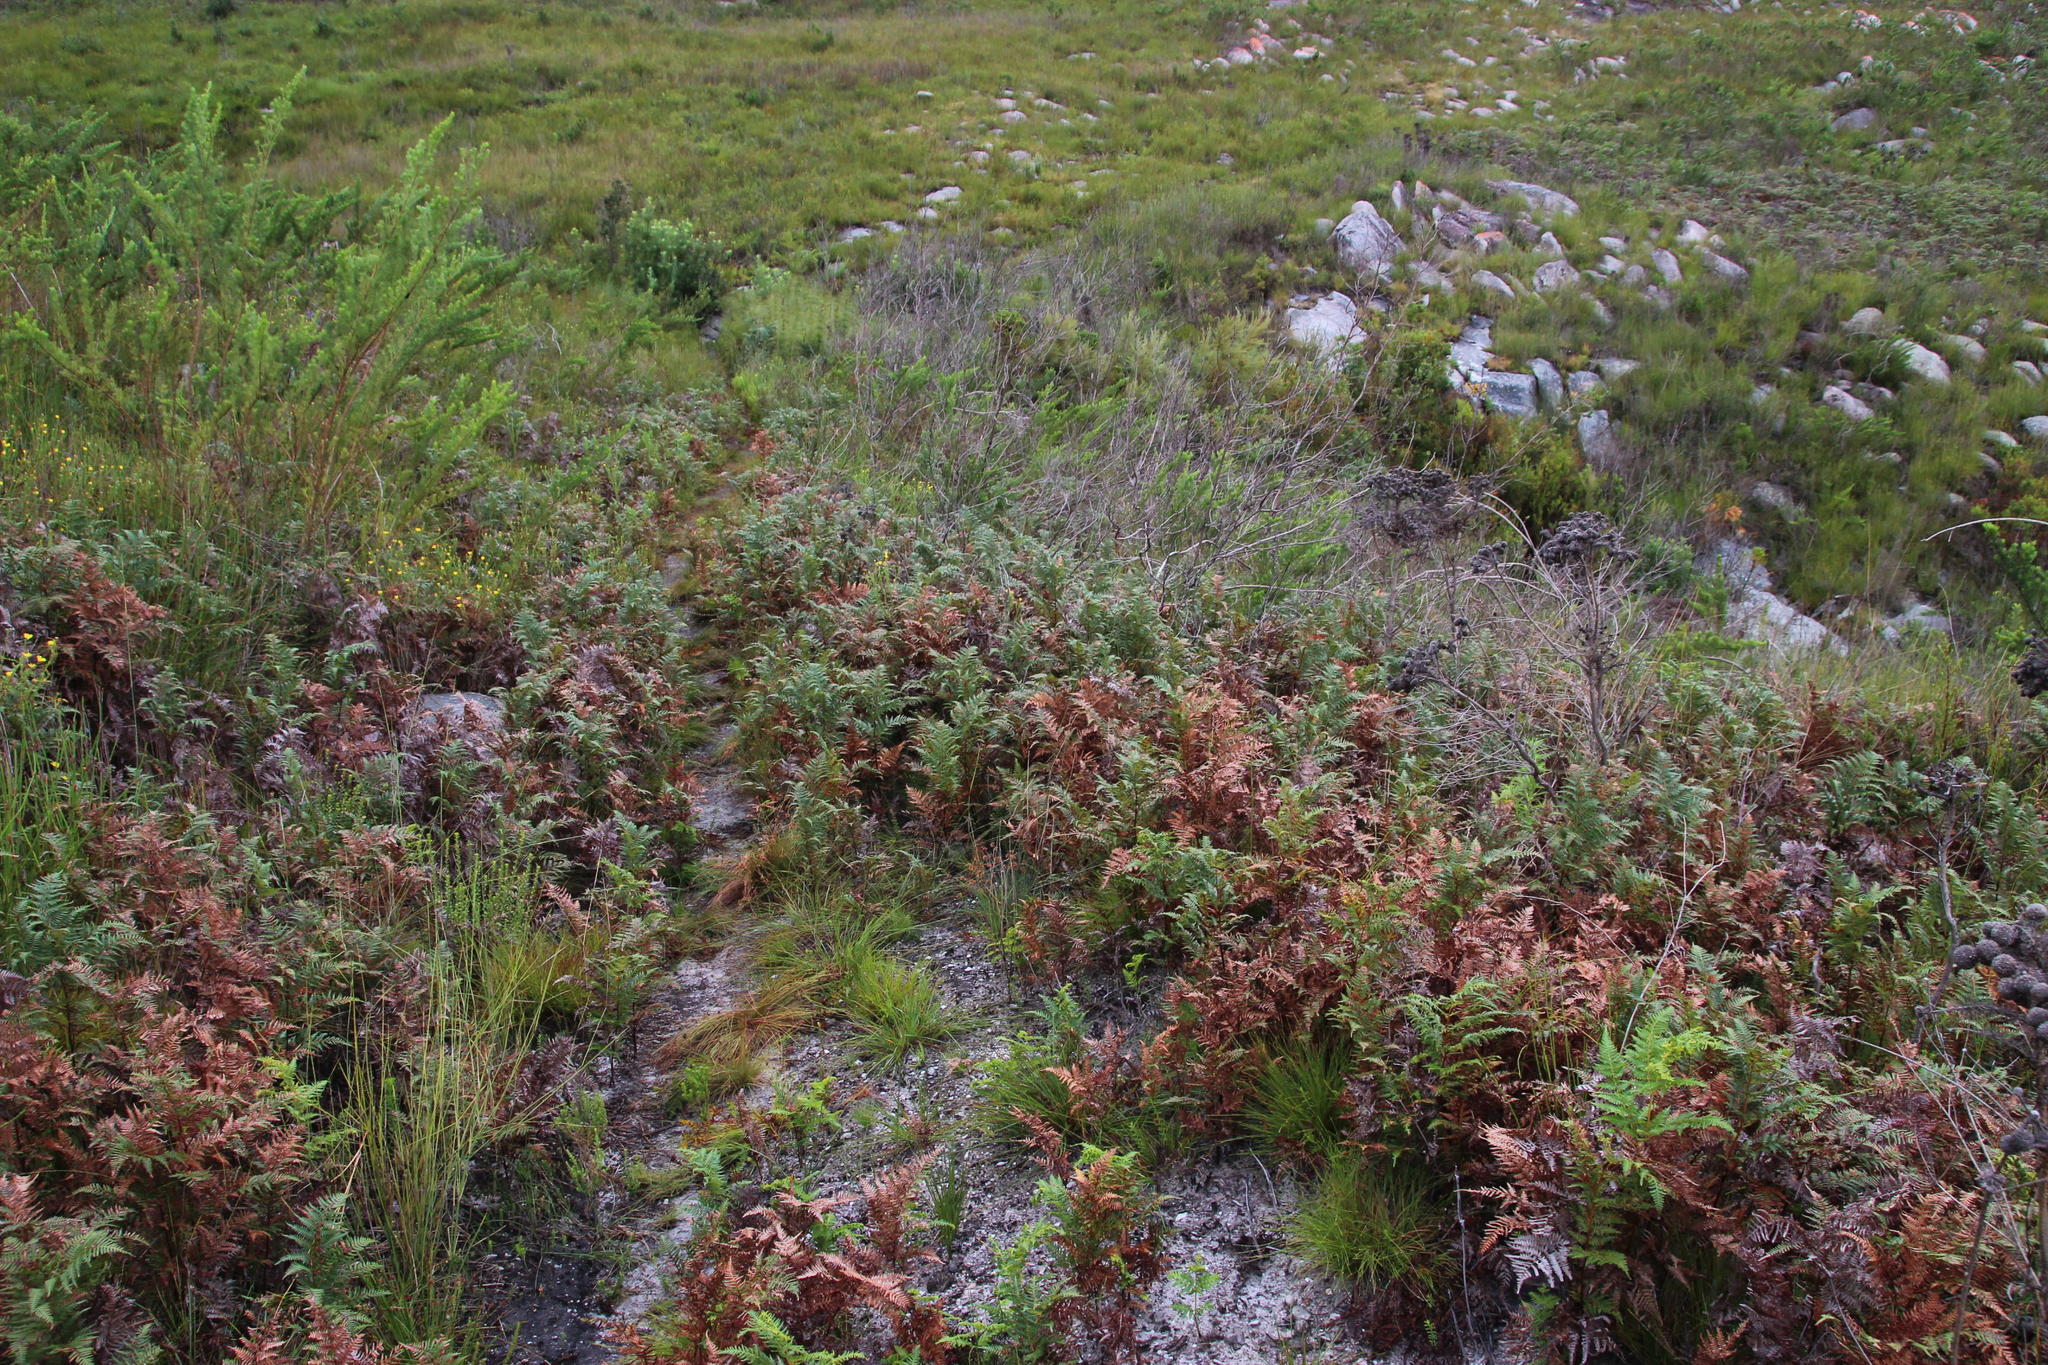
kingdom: Plantae
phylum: Tracheophyta
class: Polypodiopsida
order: Polypodiales
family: Dennstaedtiaceae
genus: Pteridium
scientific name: Pteridium aquilinum
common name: Bracken
